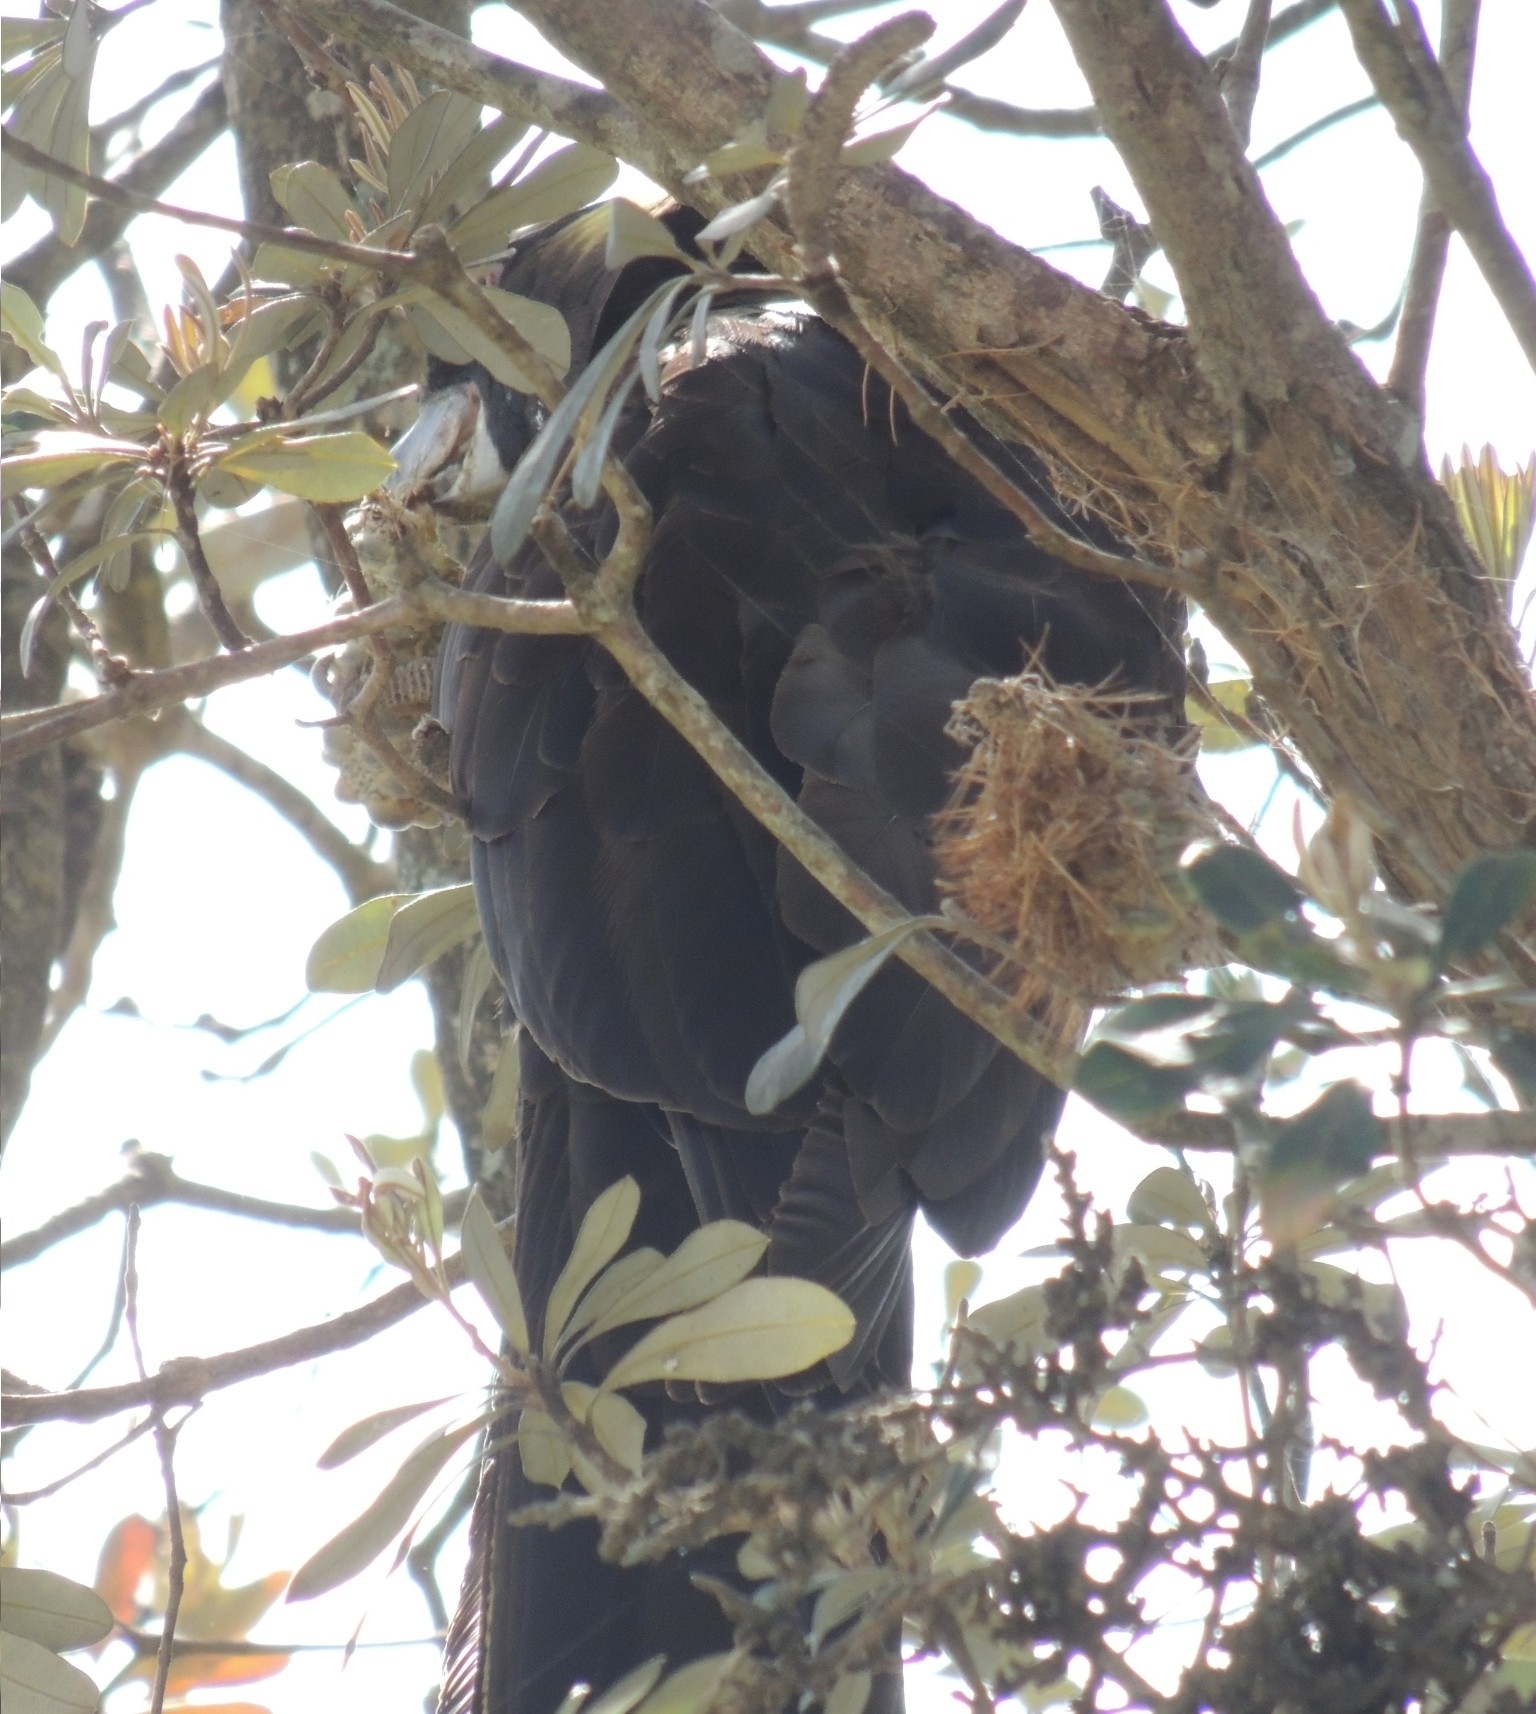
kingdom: Animalia
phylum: Chordata
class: Aves
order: Psittaciformes
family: Cacatuidae
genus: Zanda
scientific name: Zanda funerea
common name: Yellow-tailed black-cockatoo
